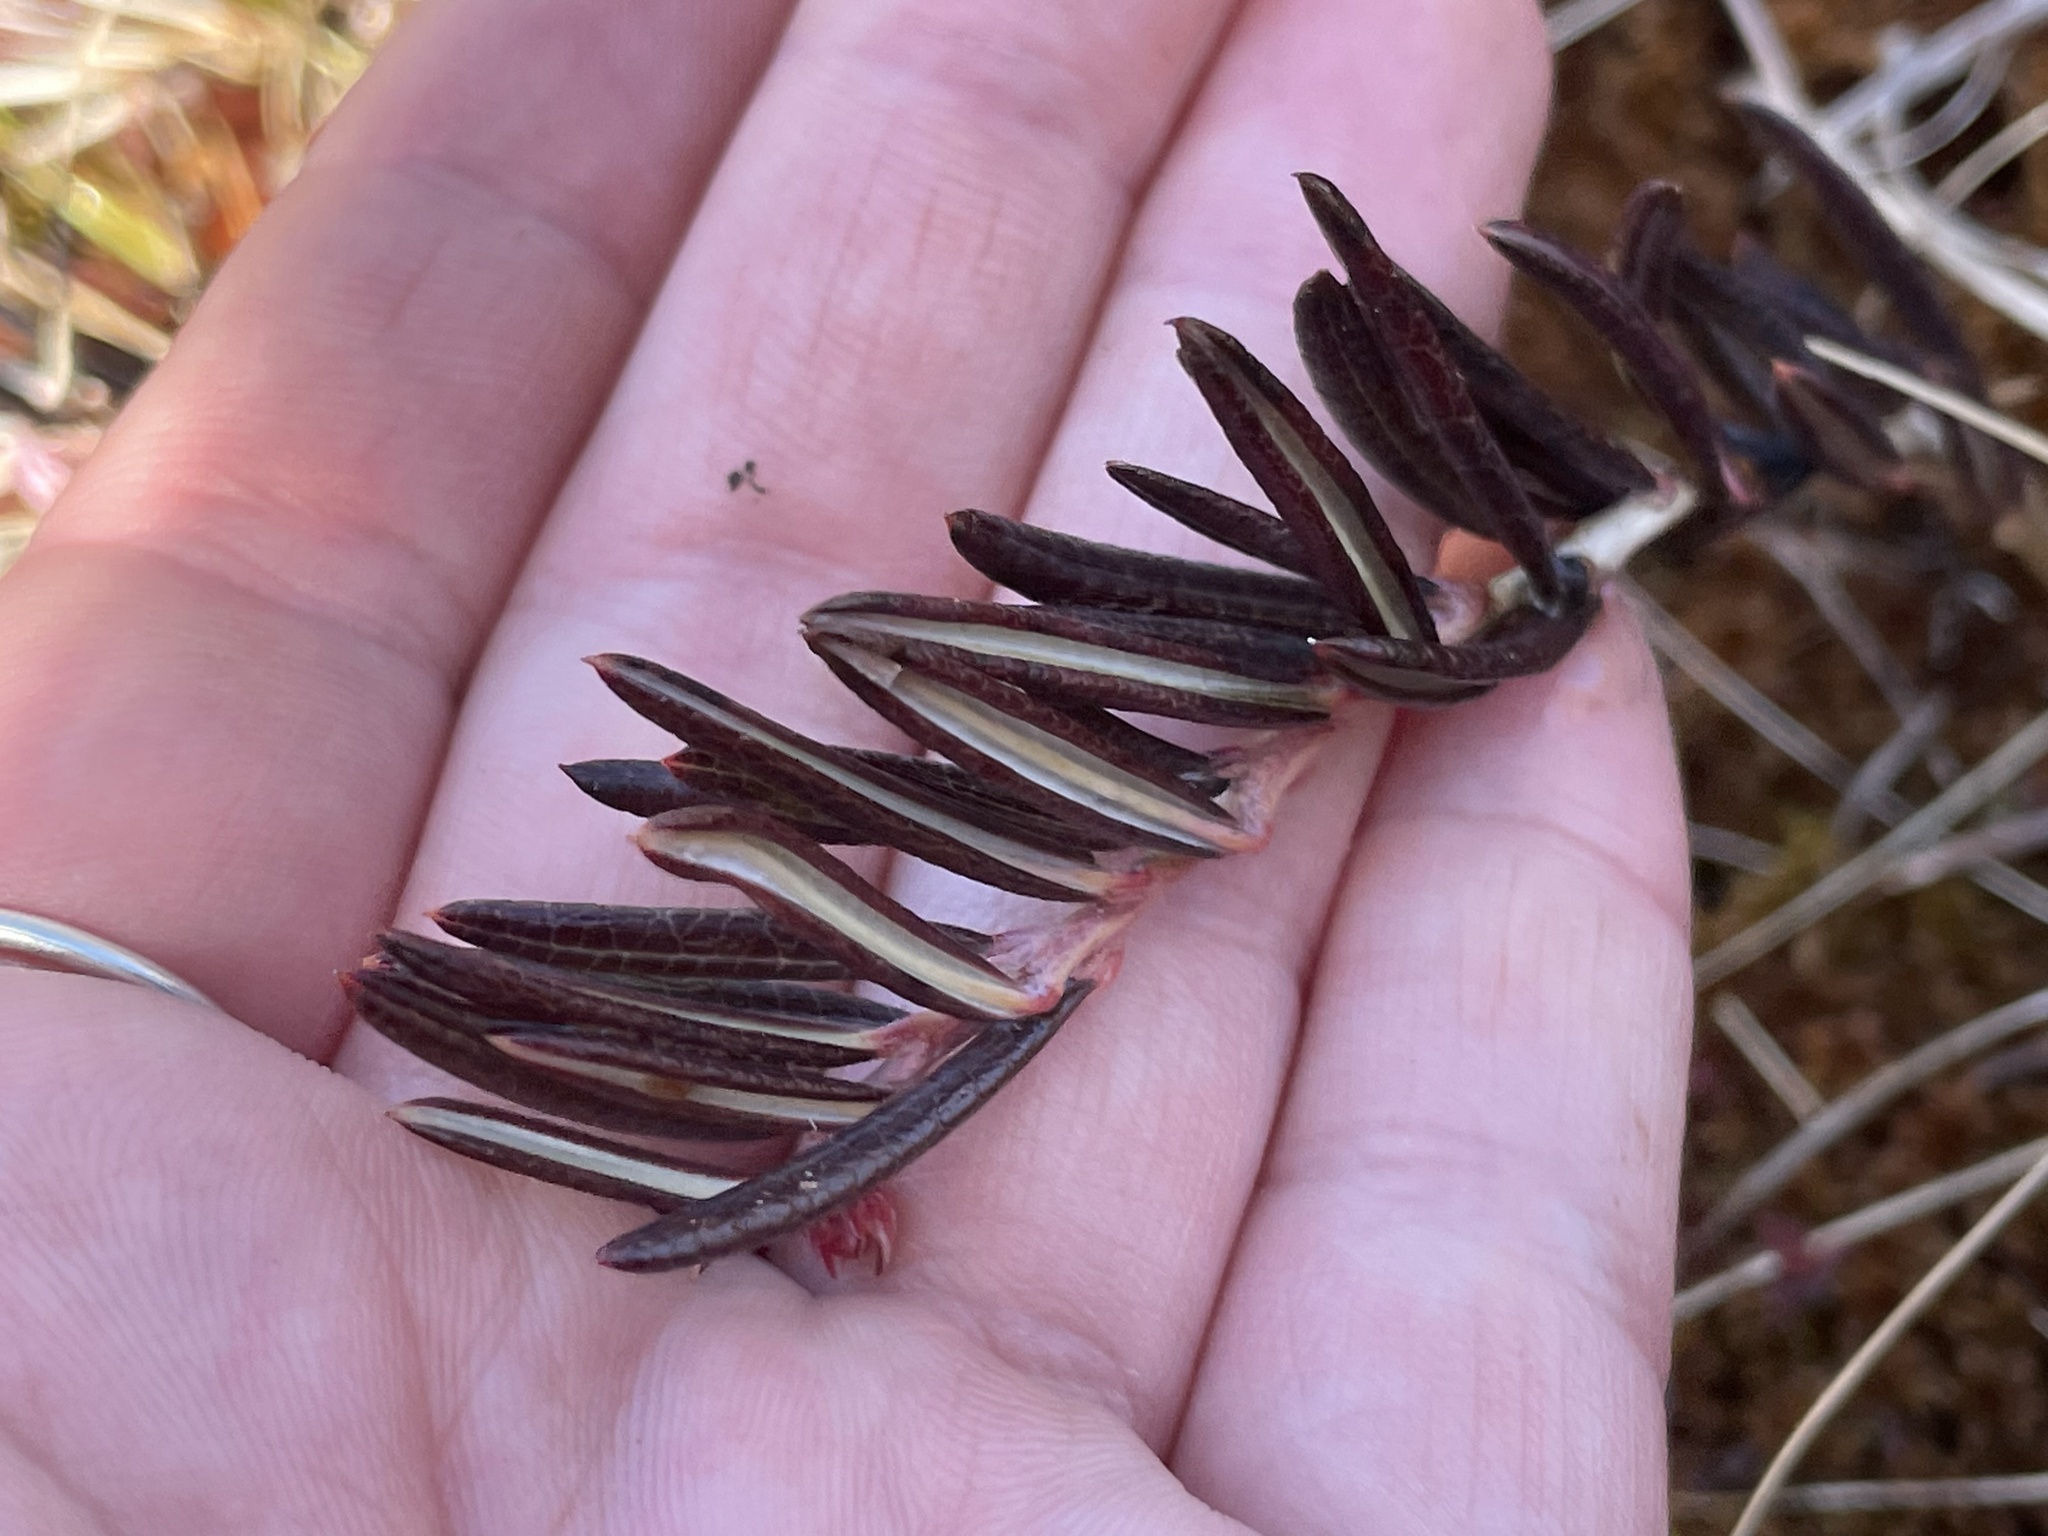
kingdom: Plantae
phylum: Tracheophyta
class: Magnoliopsida
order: Ericales
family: Ericaceae
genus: Andromeda
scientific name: Andromeda polifolia
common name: Bog-rosemary
